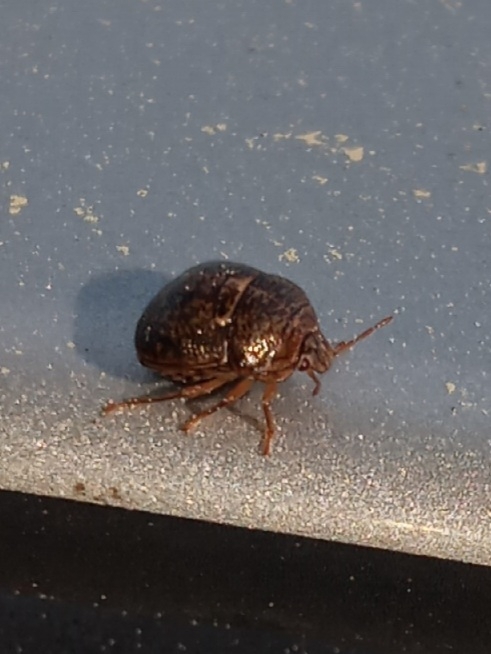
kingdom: Animalia
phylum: Arthropoda
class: Insecta
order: Hemiptera
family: Plataspidae
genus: Megacopta
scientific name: Megacopta cribraria
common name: Bean plataspid
